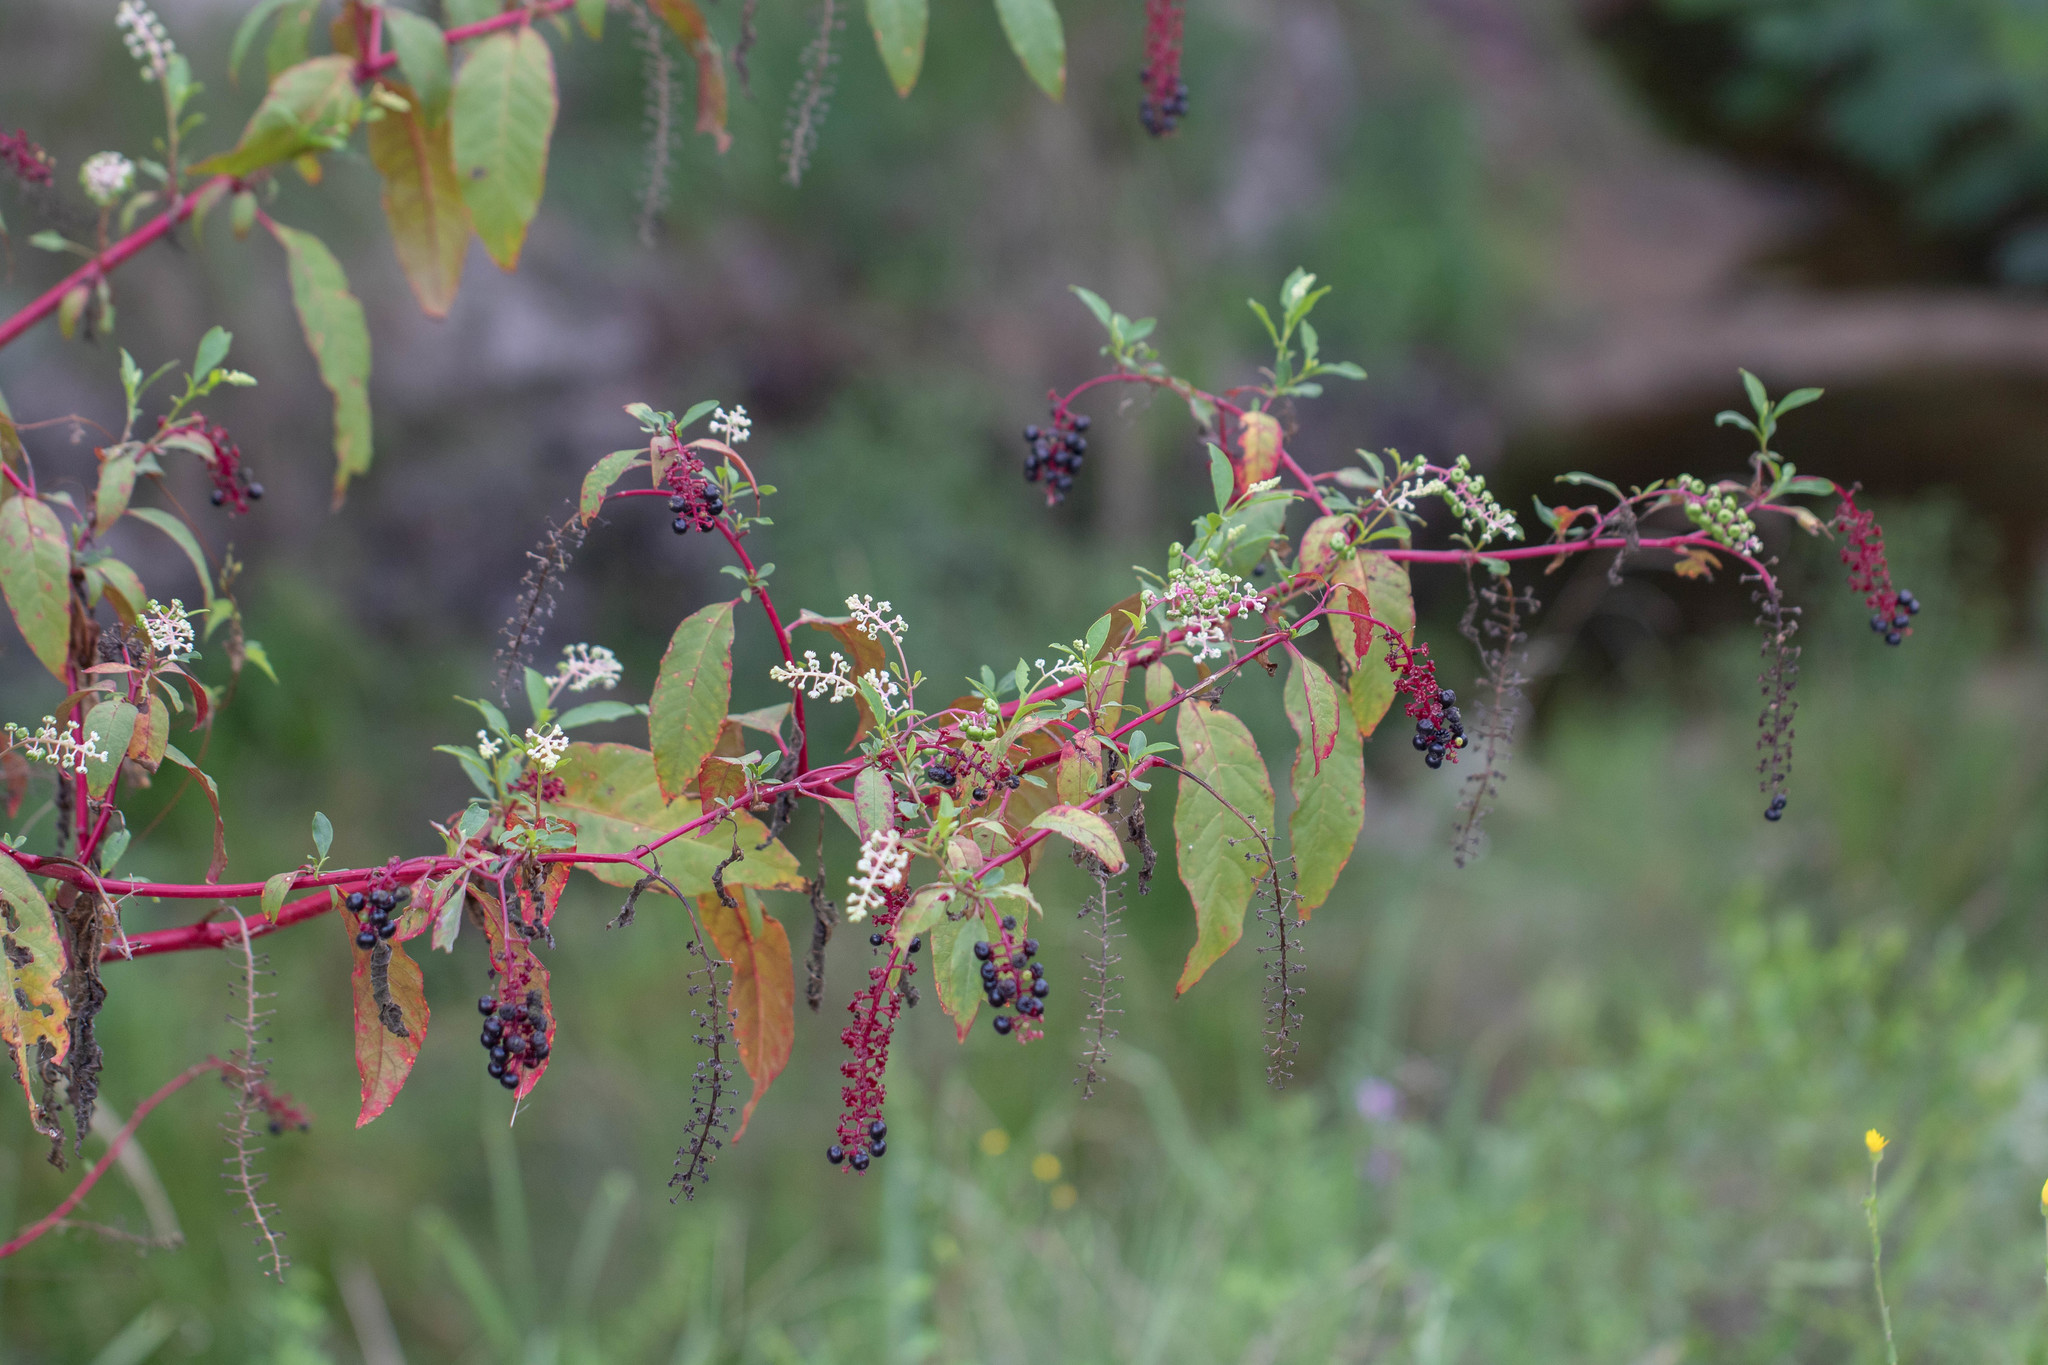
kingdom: Plantae
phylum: Tracheophyta
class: Magnoliopsida
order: Caryophyllales
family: Phytolaccaceae
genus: Phytolacca
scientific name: Phytolacca americana
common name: American pokeweed
